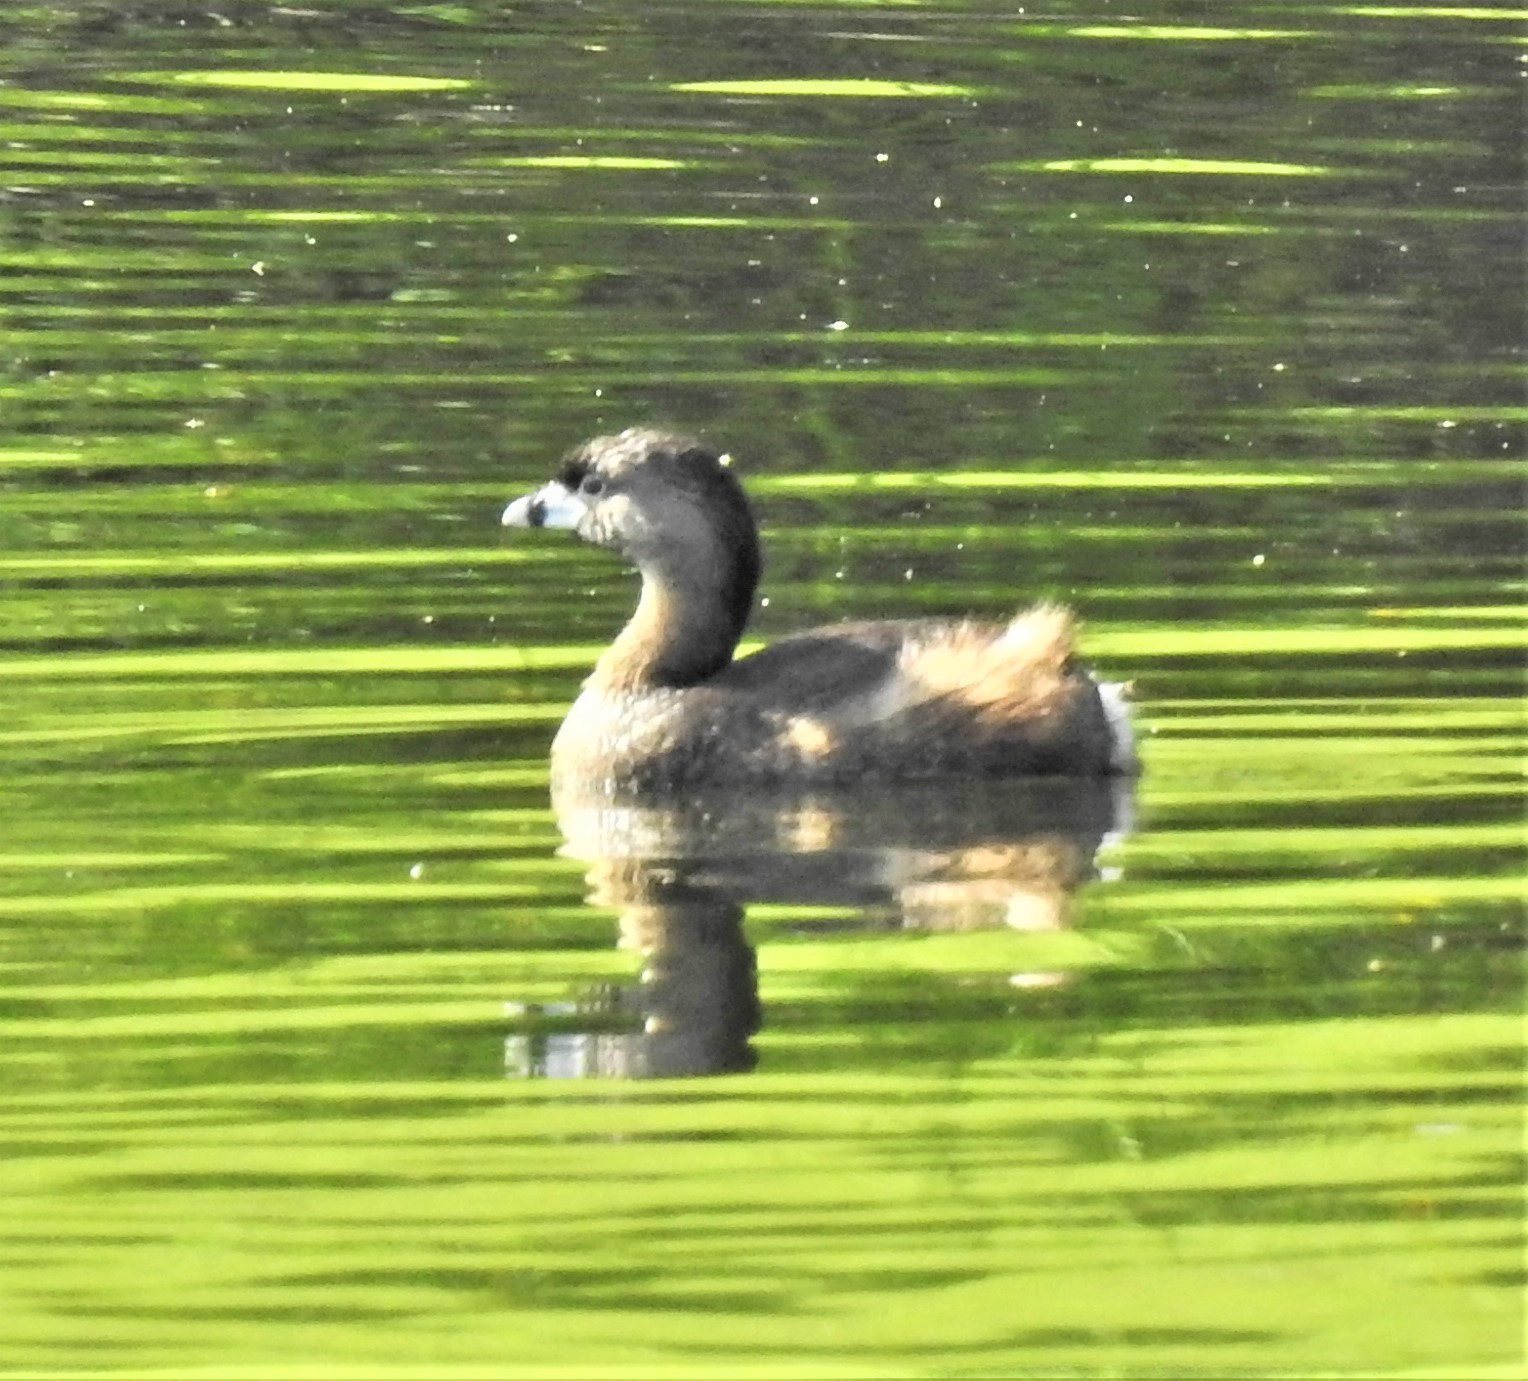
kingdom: Animalia
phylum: Chordata
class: Aves
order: Podicipediformes
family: Podicipedidae
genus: Podilymbus
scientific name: Podilymbus podiceps
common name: Pied-billed grebe
